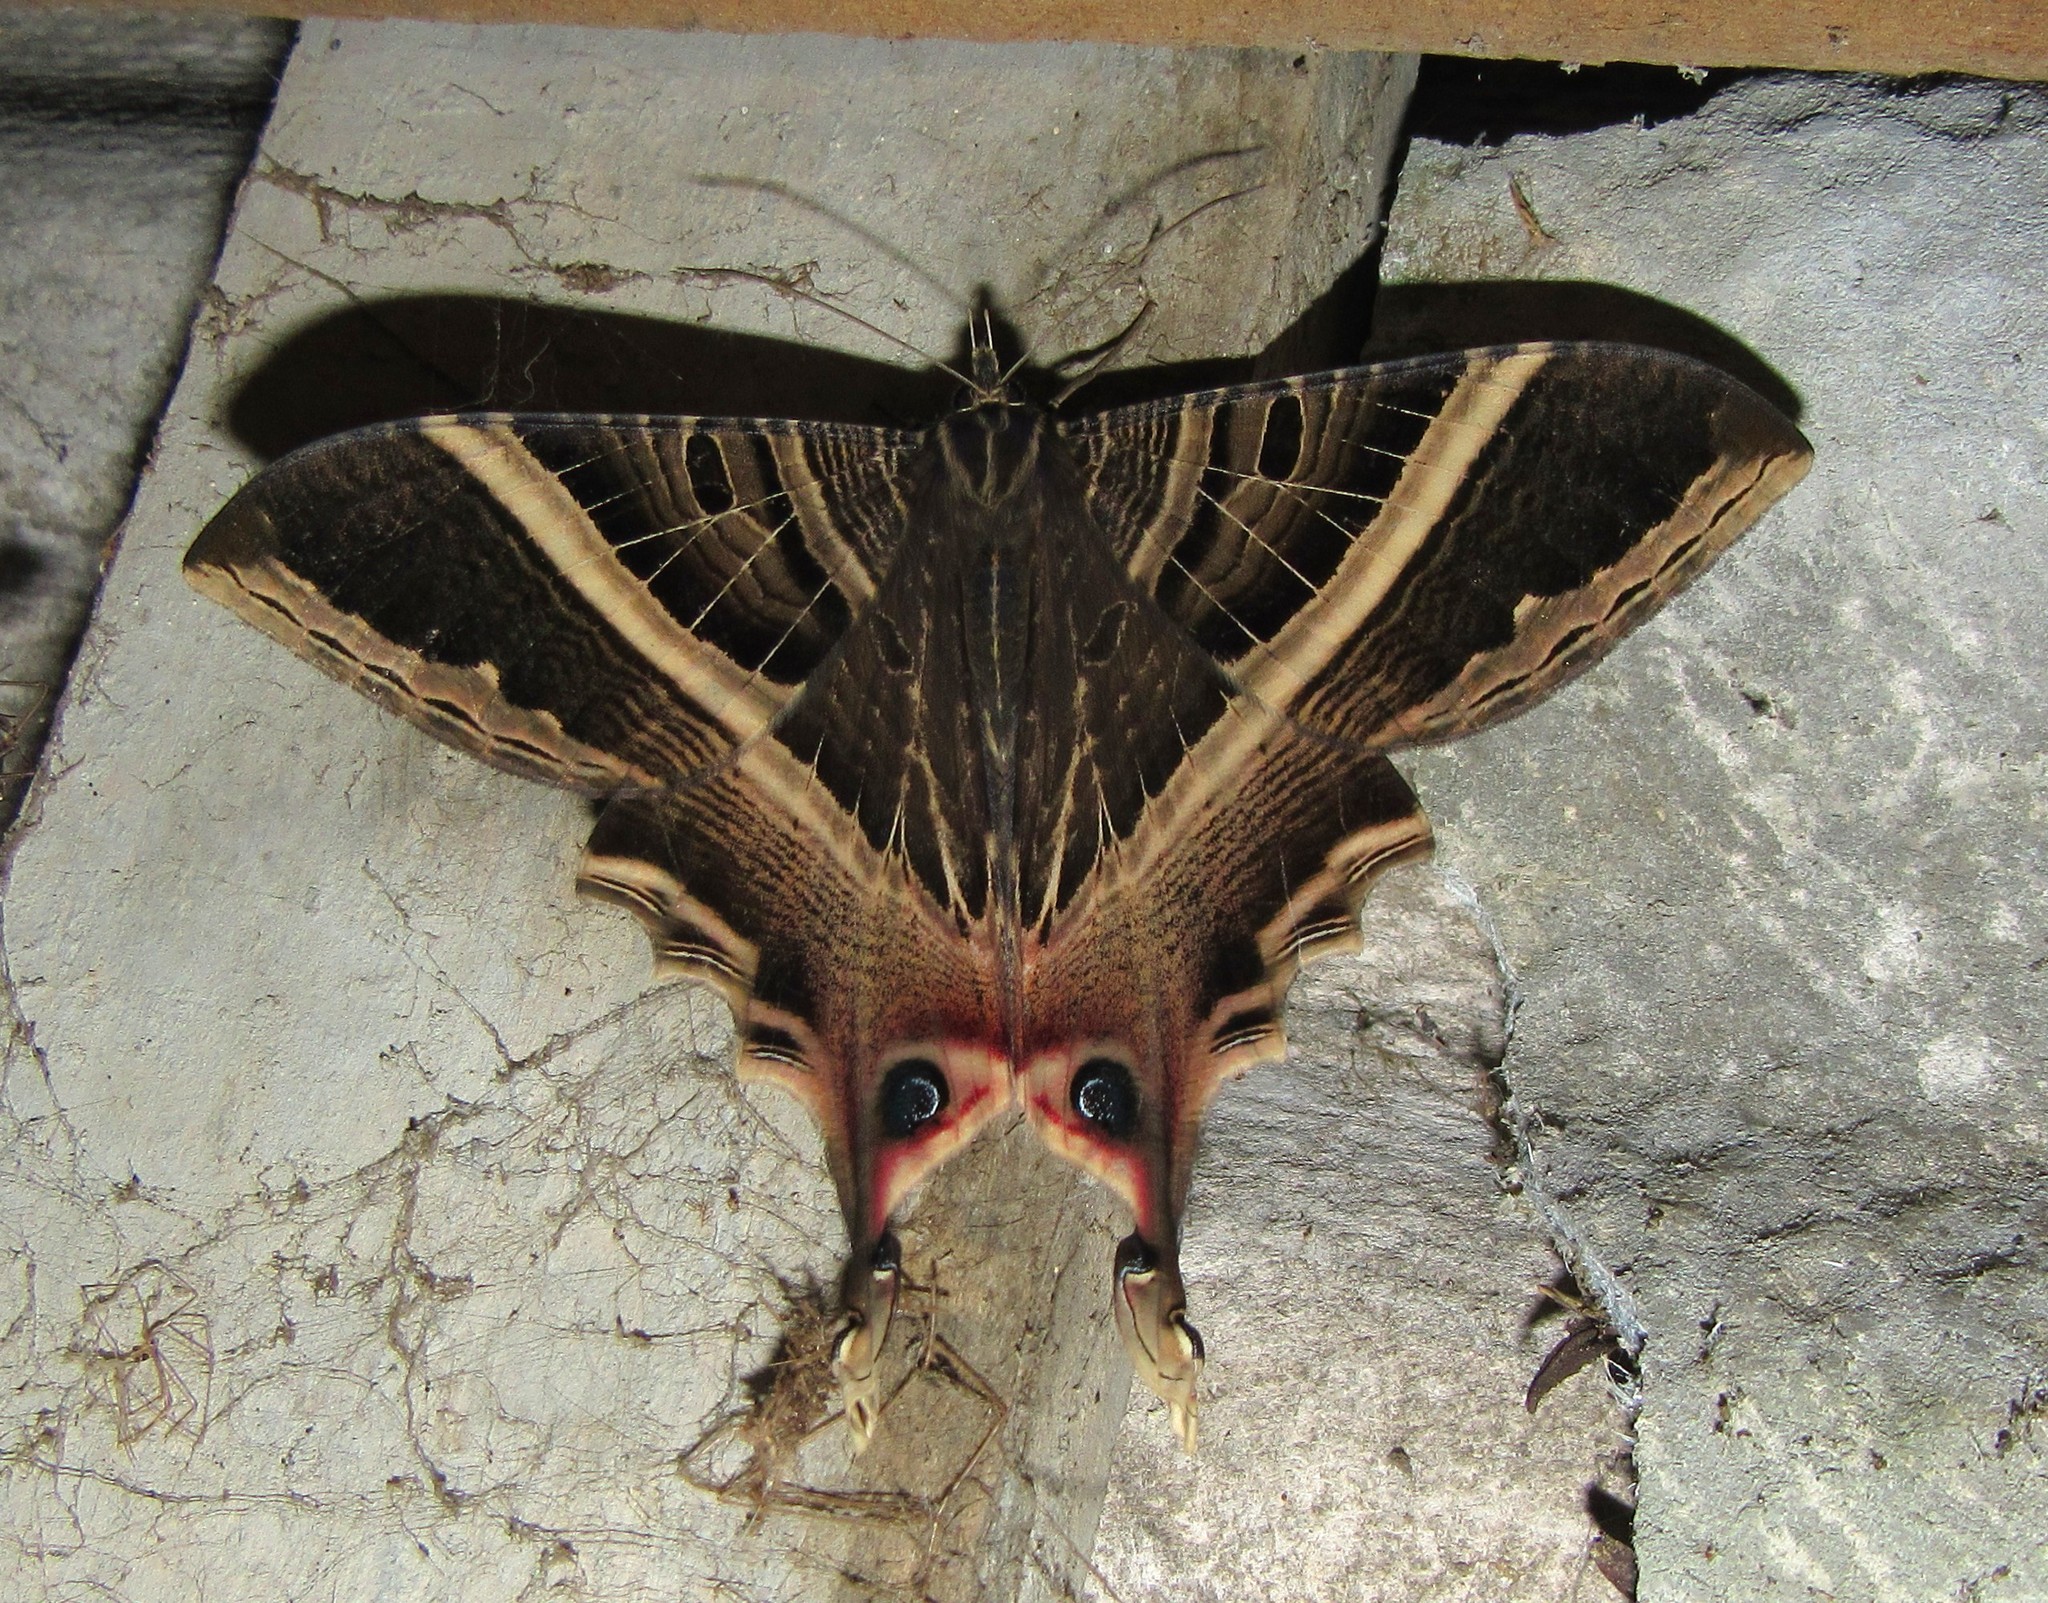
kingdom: Animalia
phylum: Arthropoda
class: Insecta
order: Lepidoptera
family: Sematuridae
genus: Nothus
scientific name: Nothus
